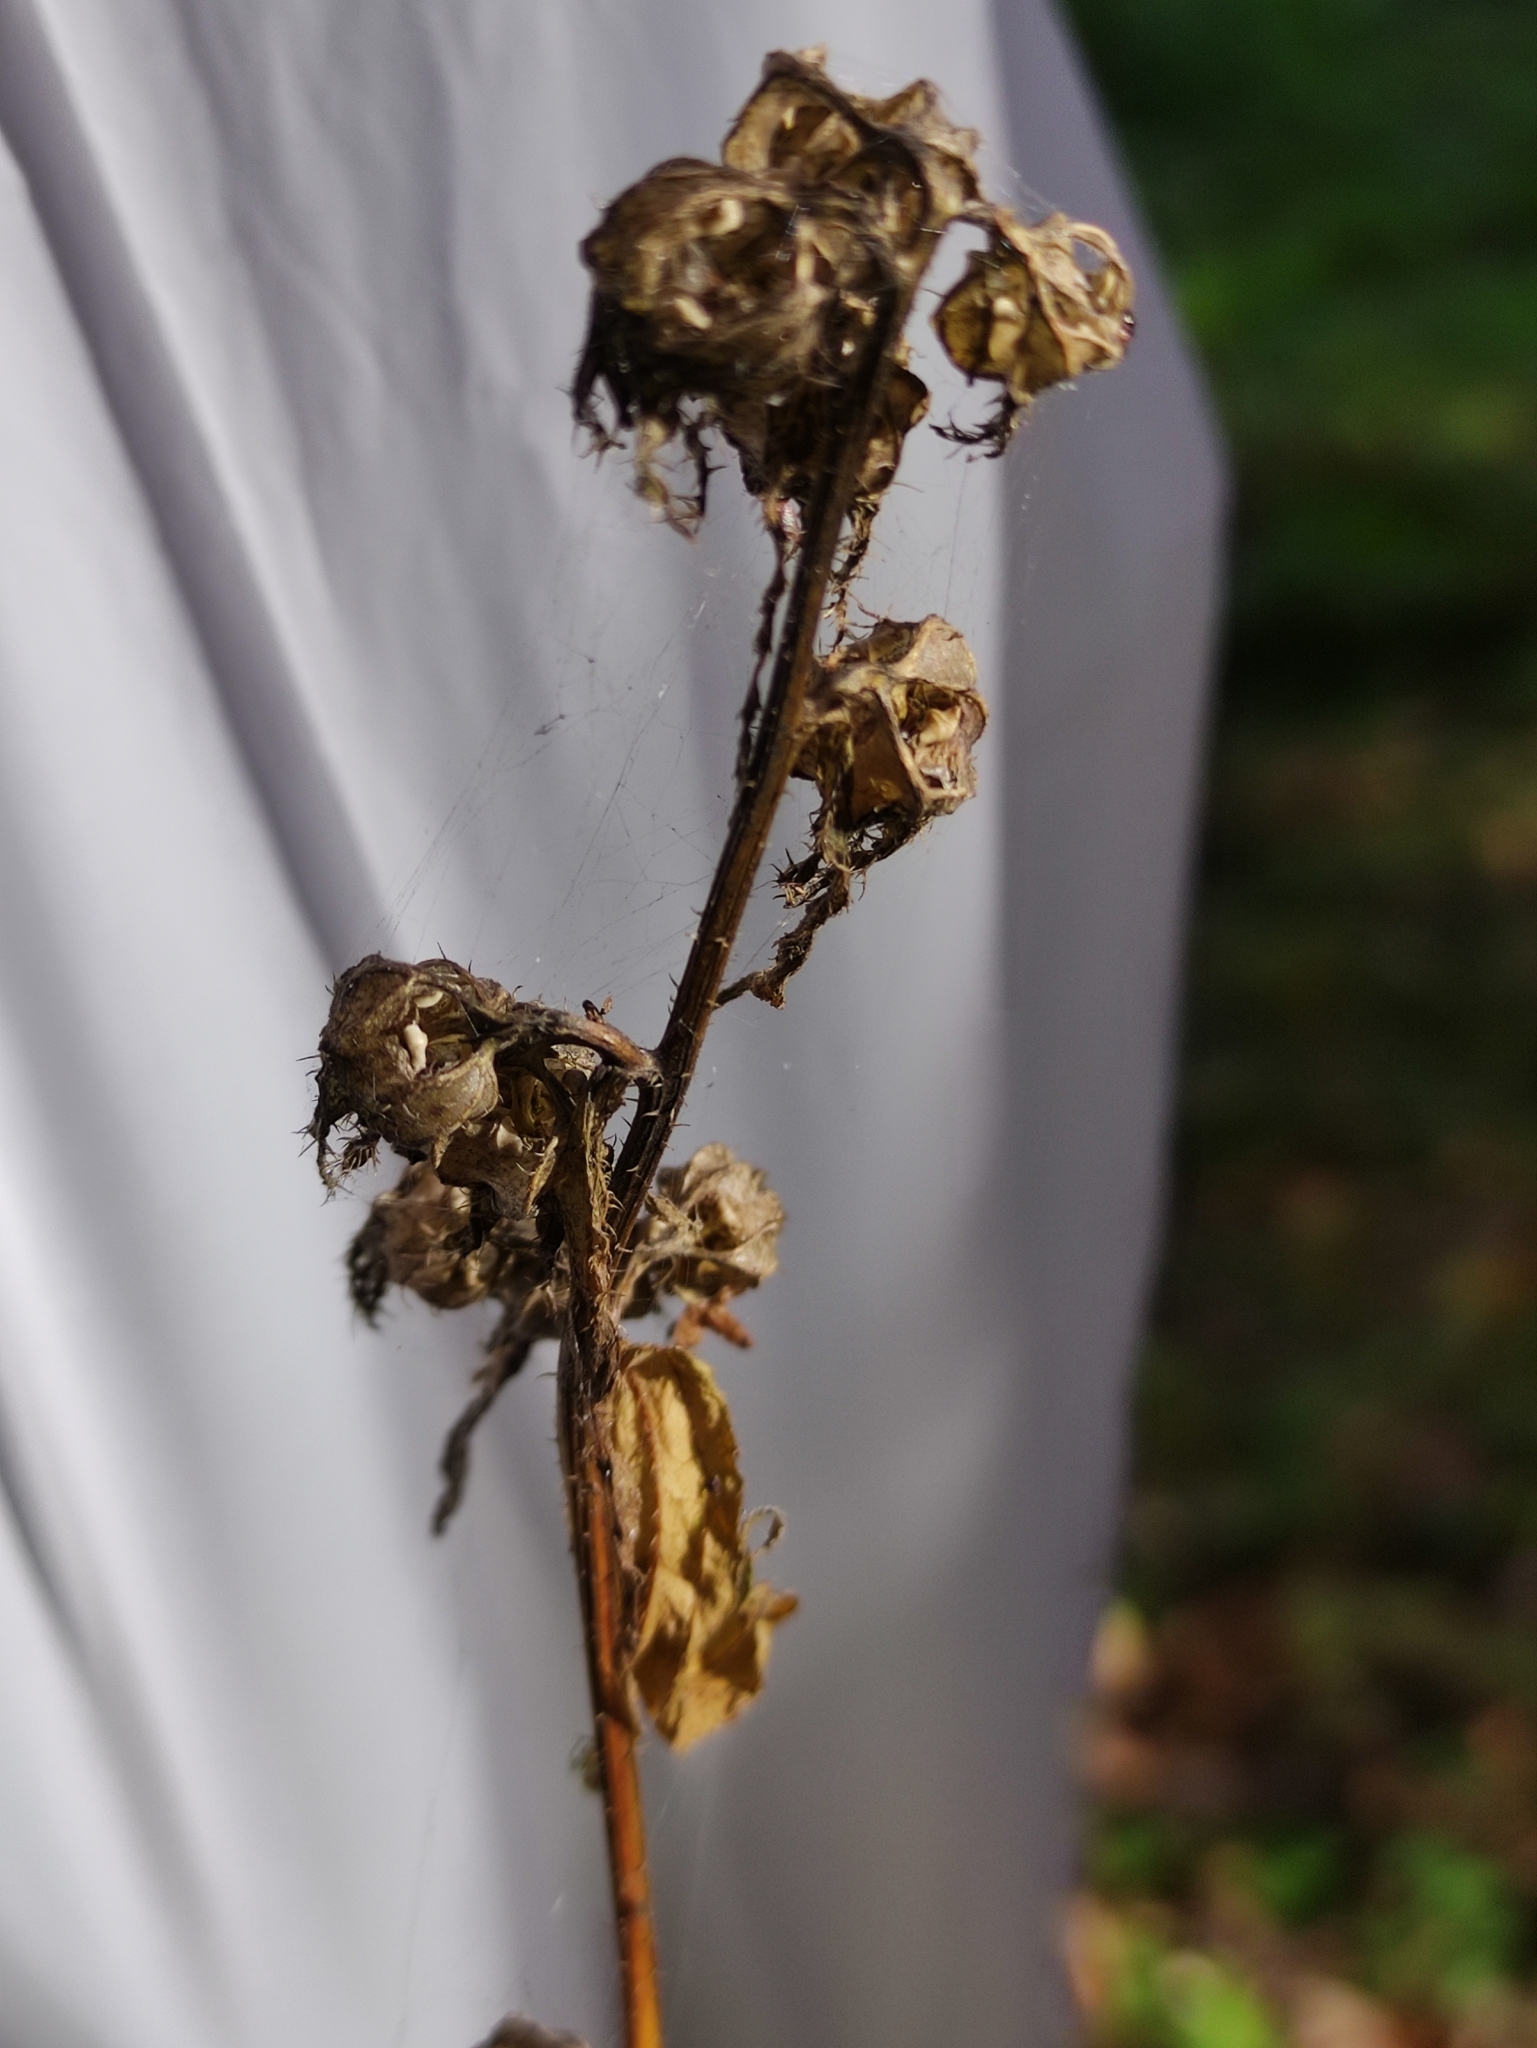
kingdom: Plantae
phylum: Tracheophyta
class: Magnoliopsida
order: Asterales
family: Campanulaceae
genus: Campanula
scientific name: Campanula trachelium
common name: Nettle-leaved bellflower
